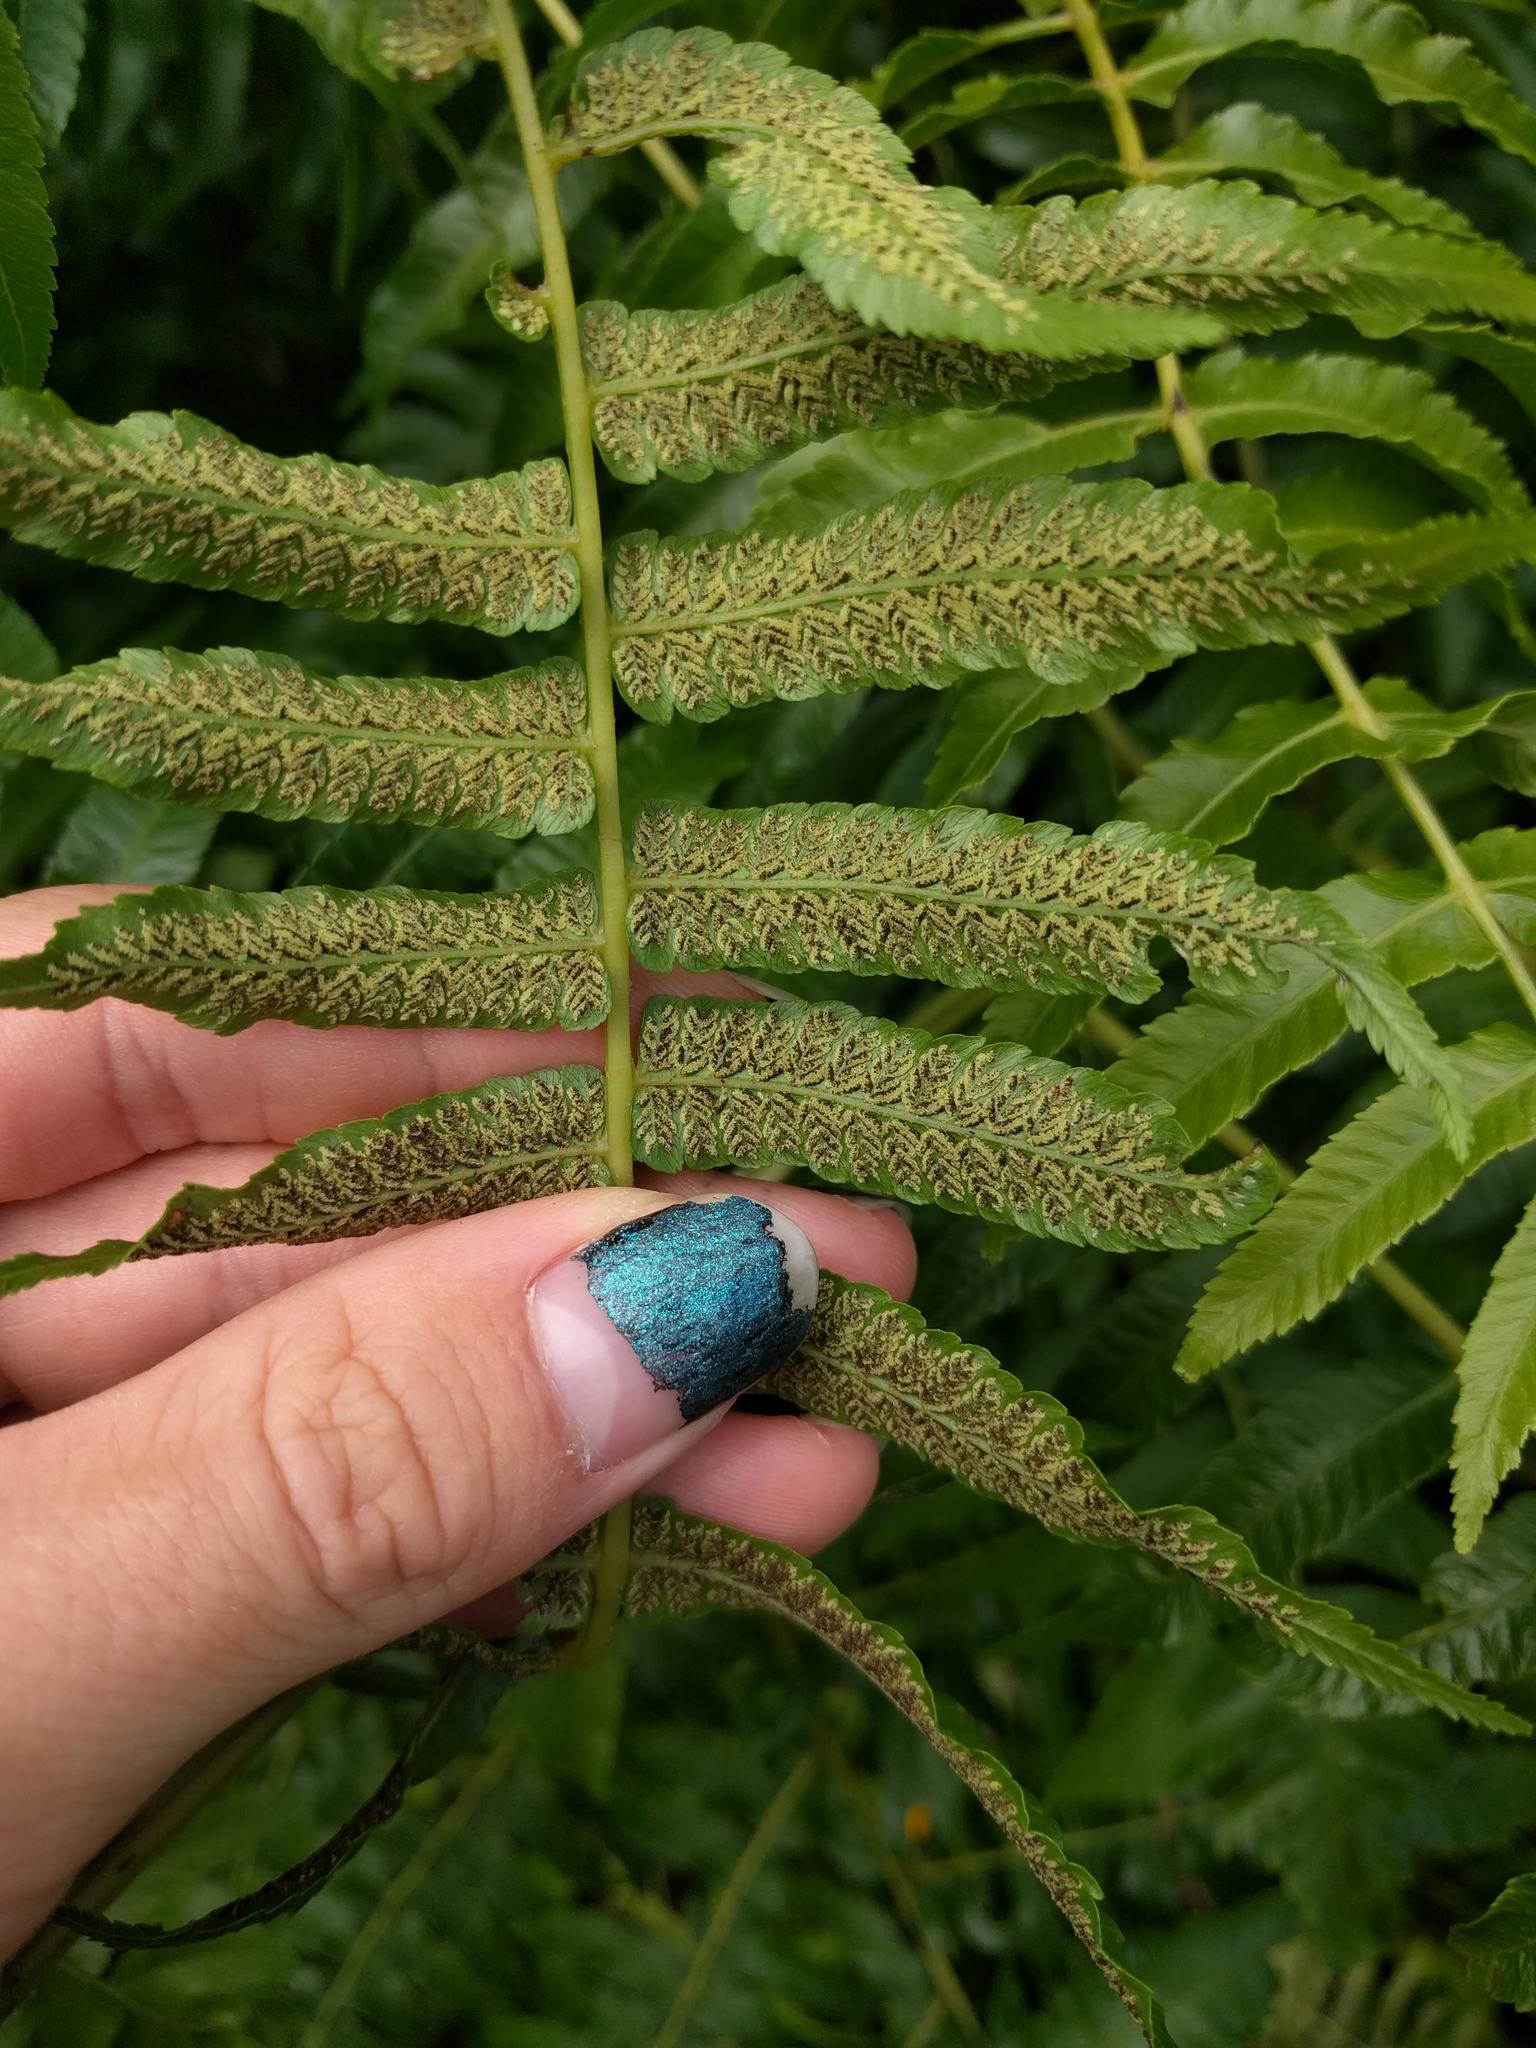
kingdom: Plantae
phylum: Tracheophyta
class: Polypodiopsida
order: Polypodiales
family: Athyriaceae
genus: Diplazium
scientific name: Diplazium esculentum
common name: Vegetable fern
